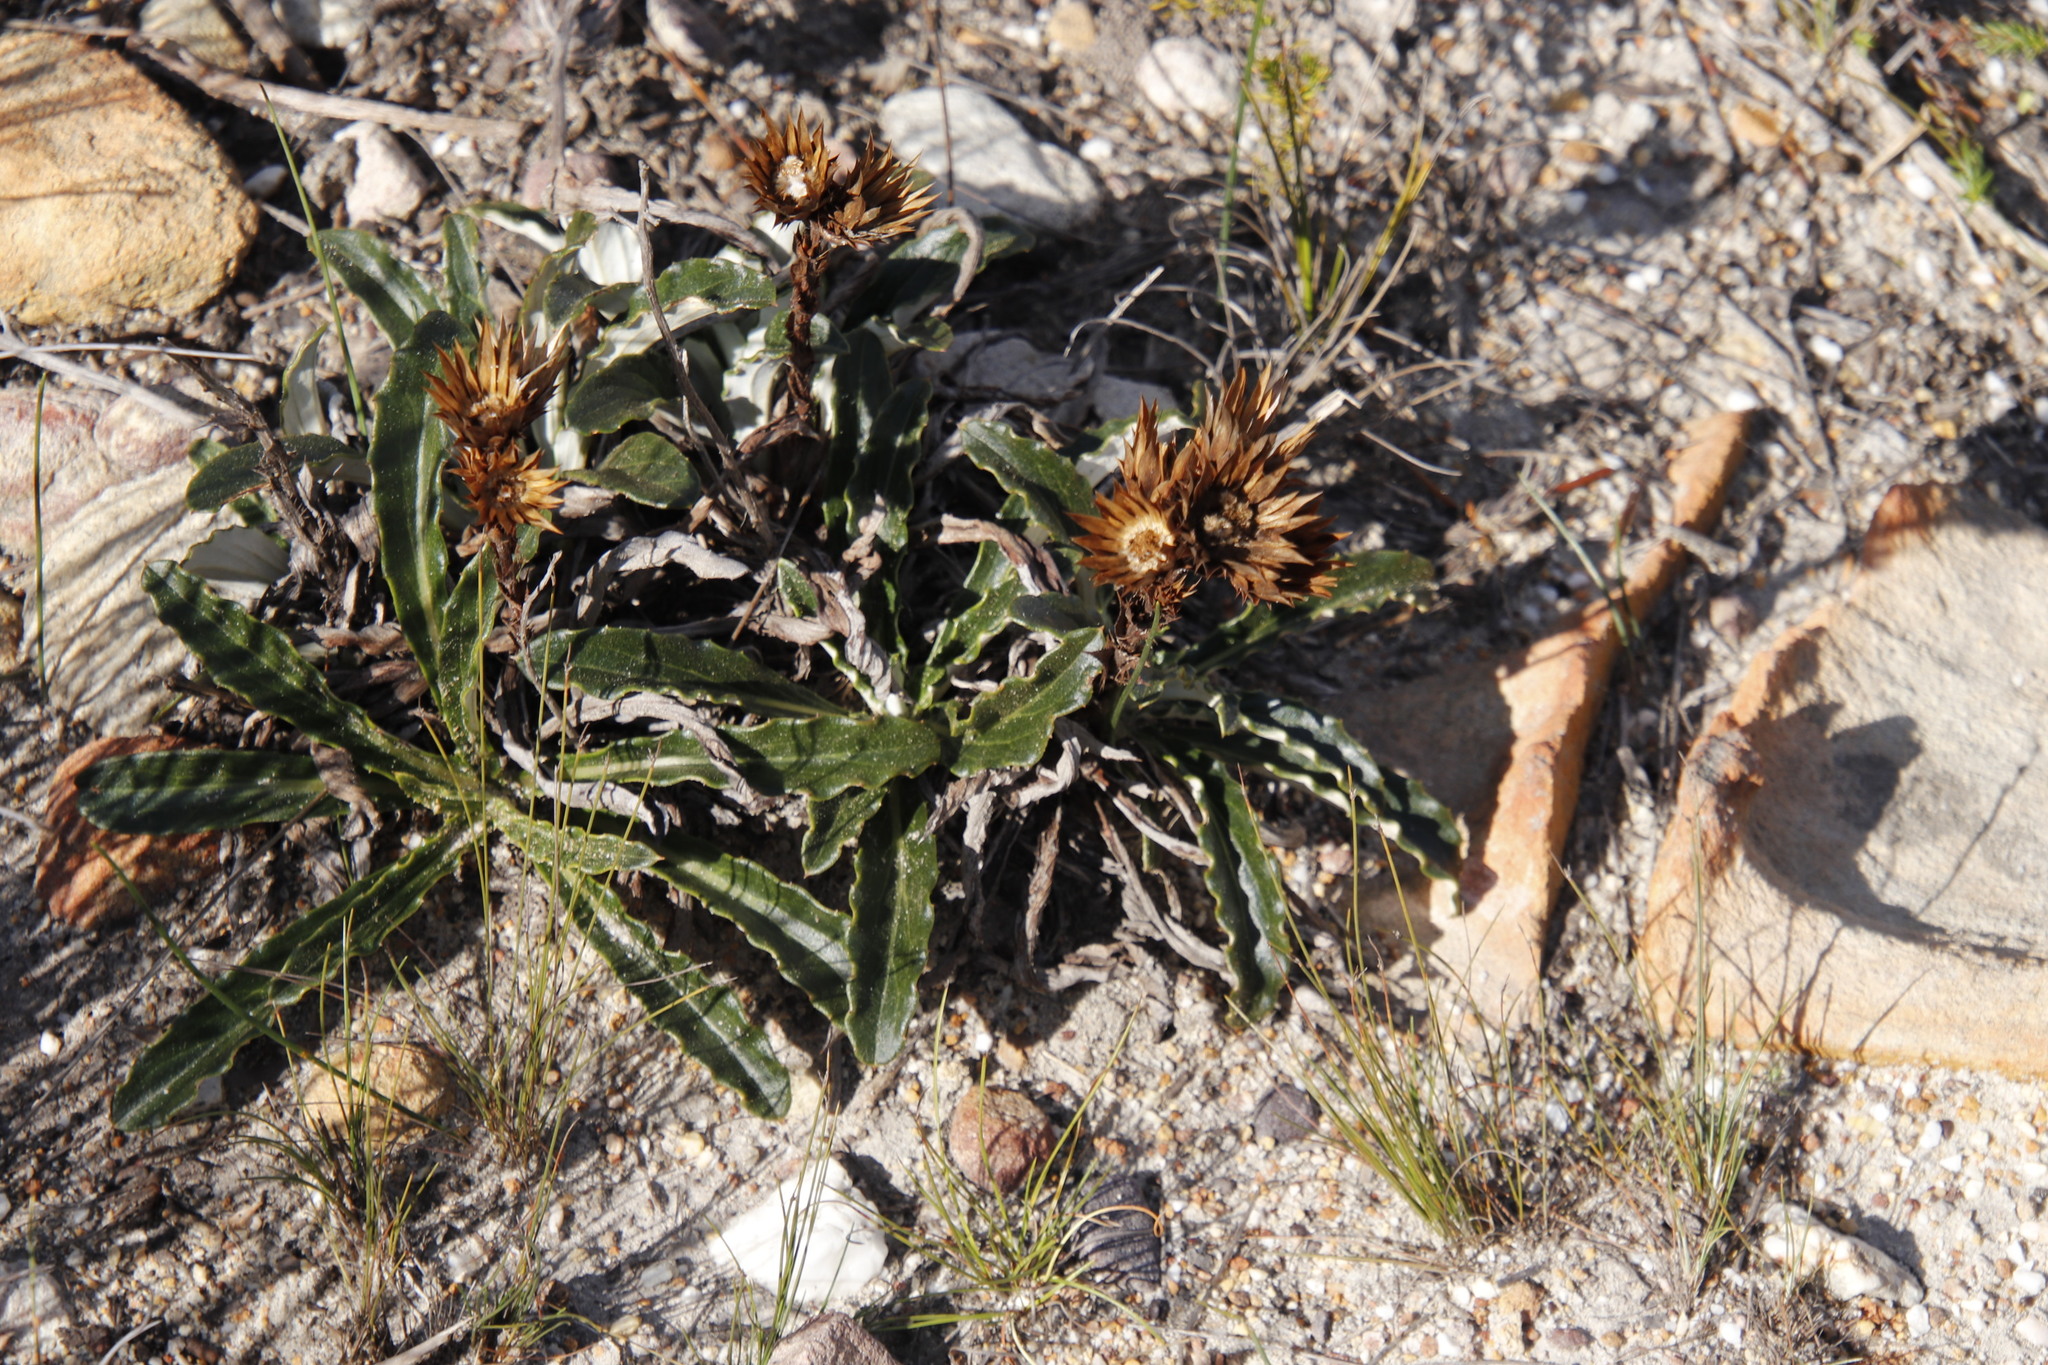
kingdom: Plantae
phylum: Tracheophyta
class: Magnoliopsida
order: Asterales
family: Asteraceae
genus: Berkheya
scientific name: Berkheya herbacea
